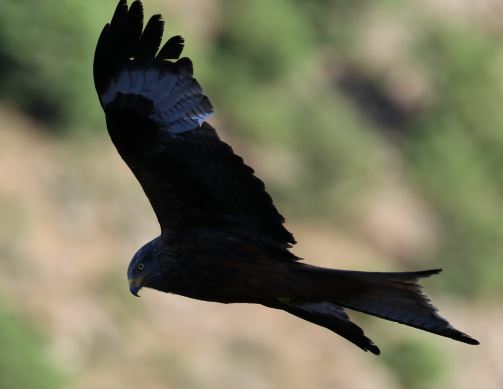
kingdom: Animalia
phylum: Chordata
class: Aves
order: Accipitriformes
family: Accipitridae
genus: Milvus
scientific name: Milvus milvus
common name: Red kite
